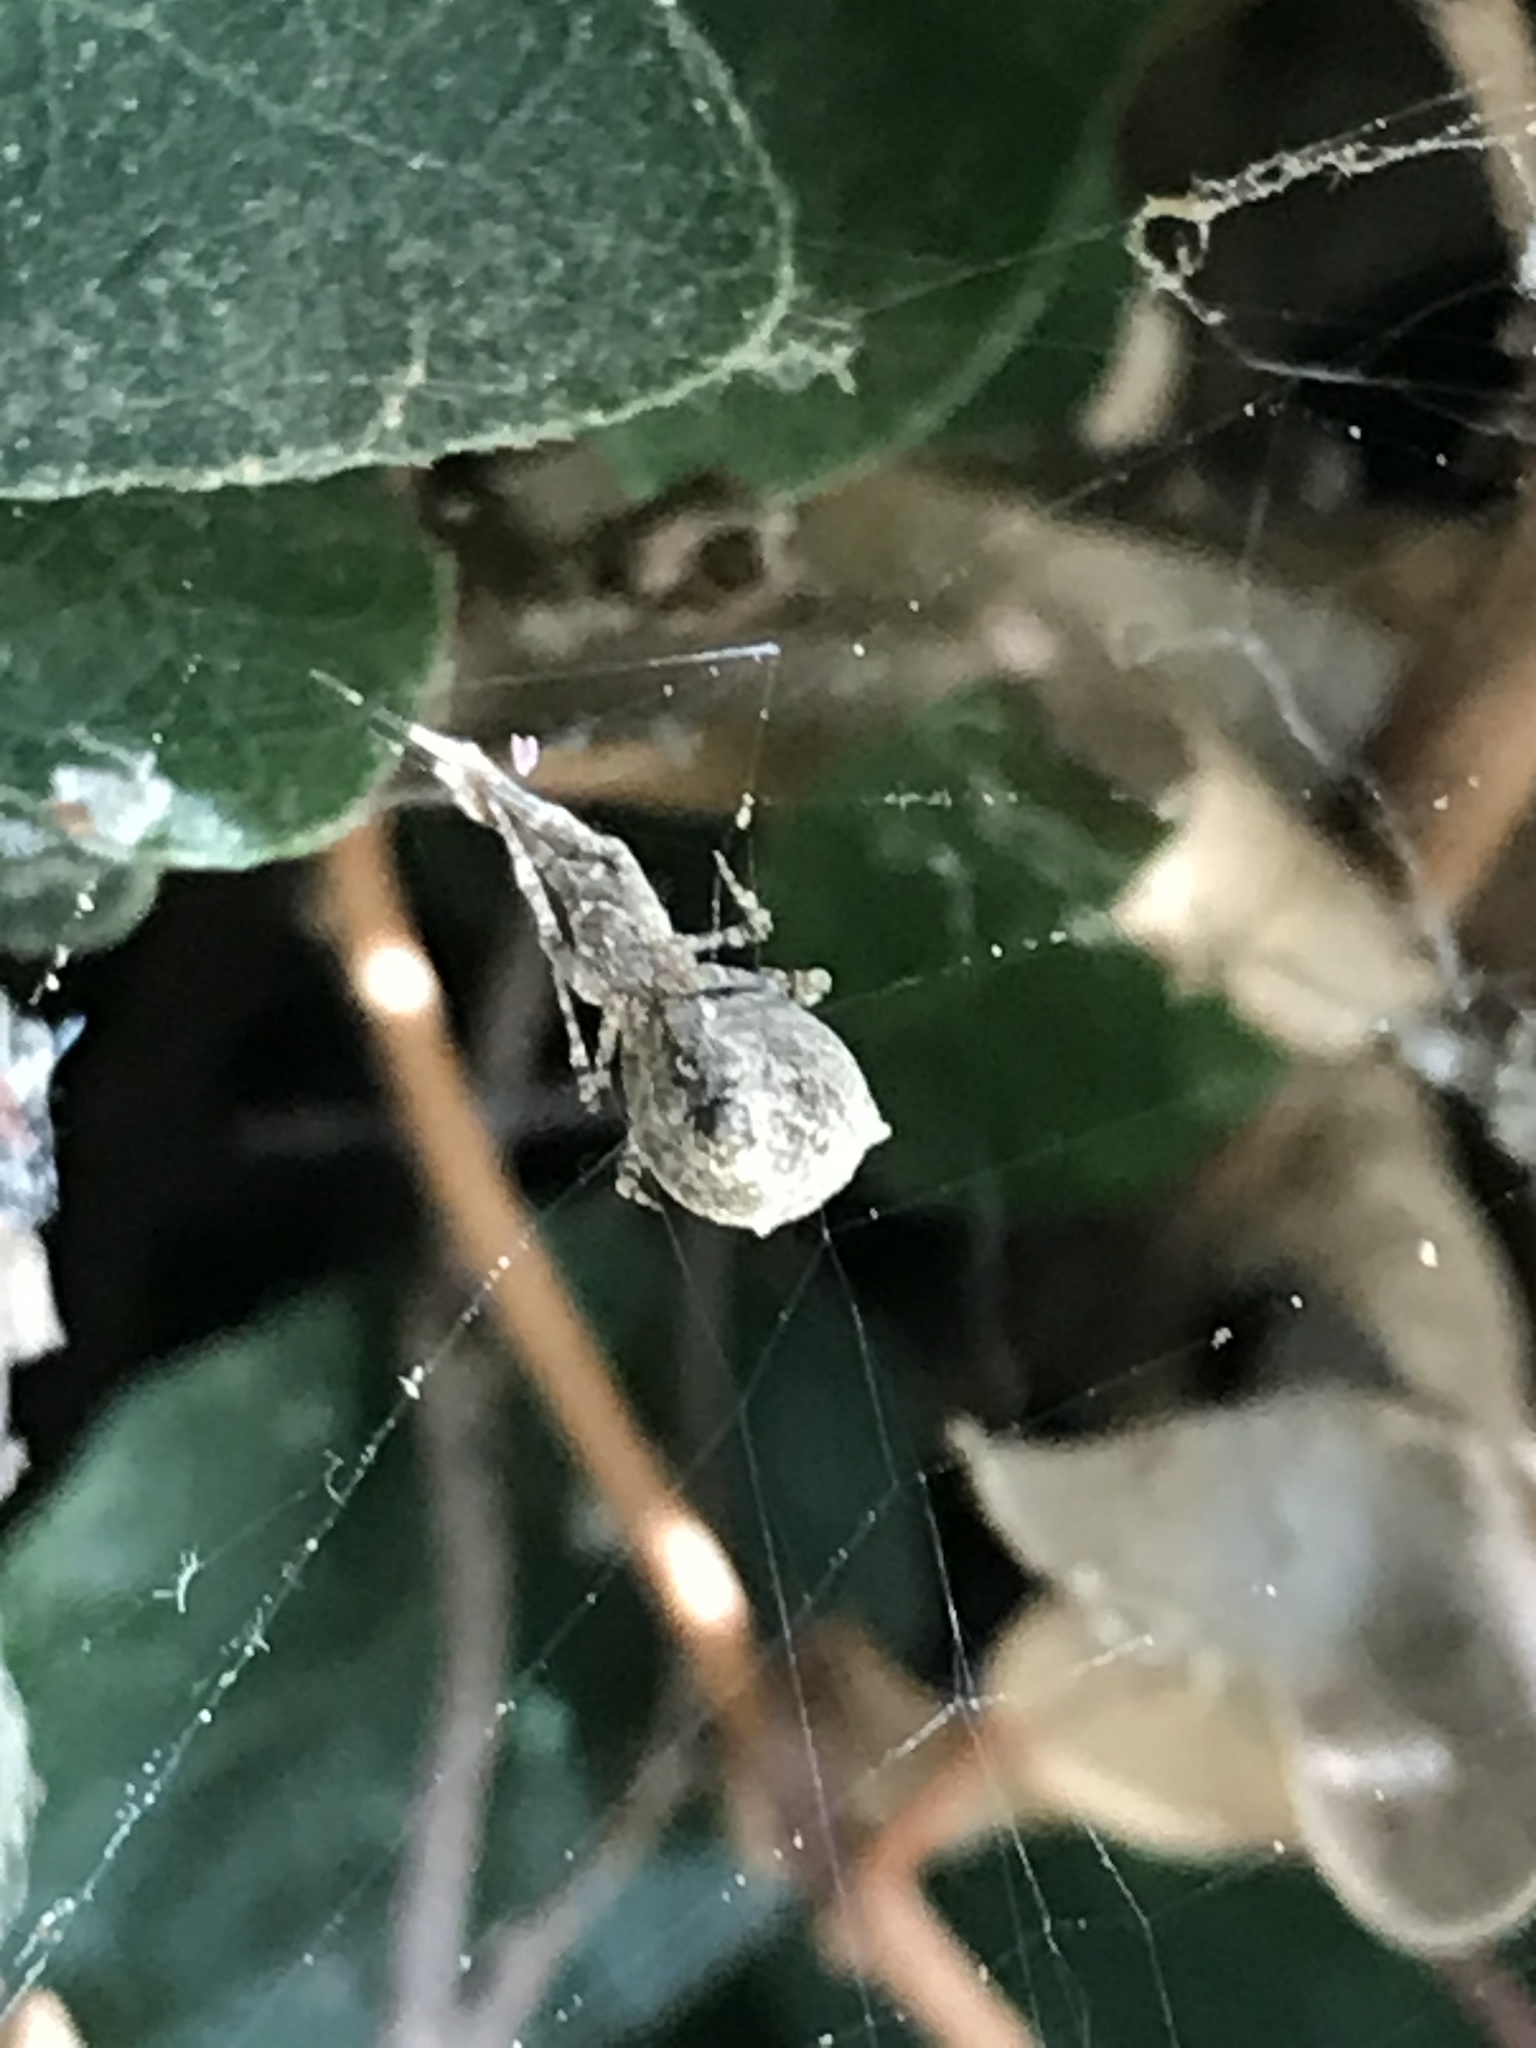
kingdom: Animalia
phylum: Arthropoda
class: Arachnida
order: Araneae
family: Uloboridae
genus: Uloborus
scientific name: Uloborus diversus
